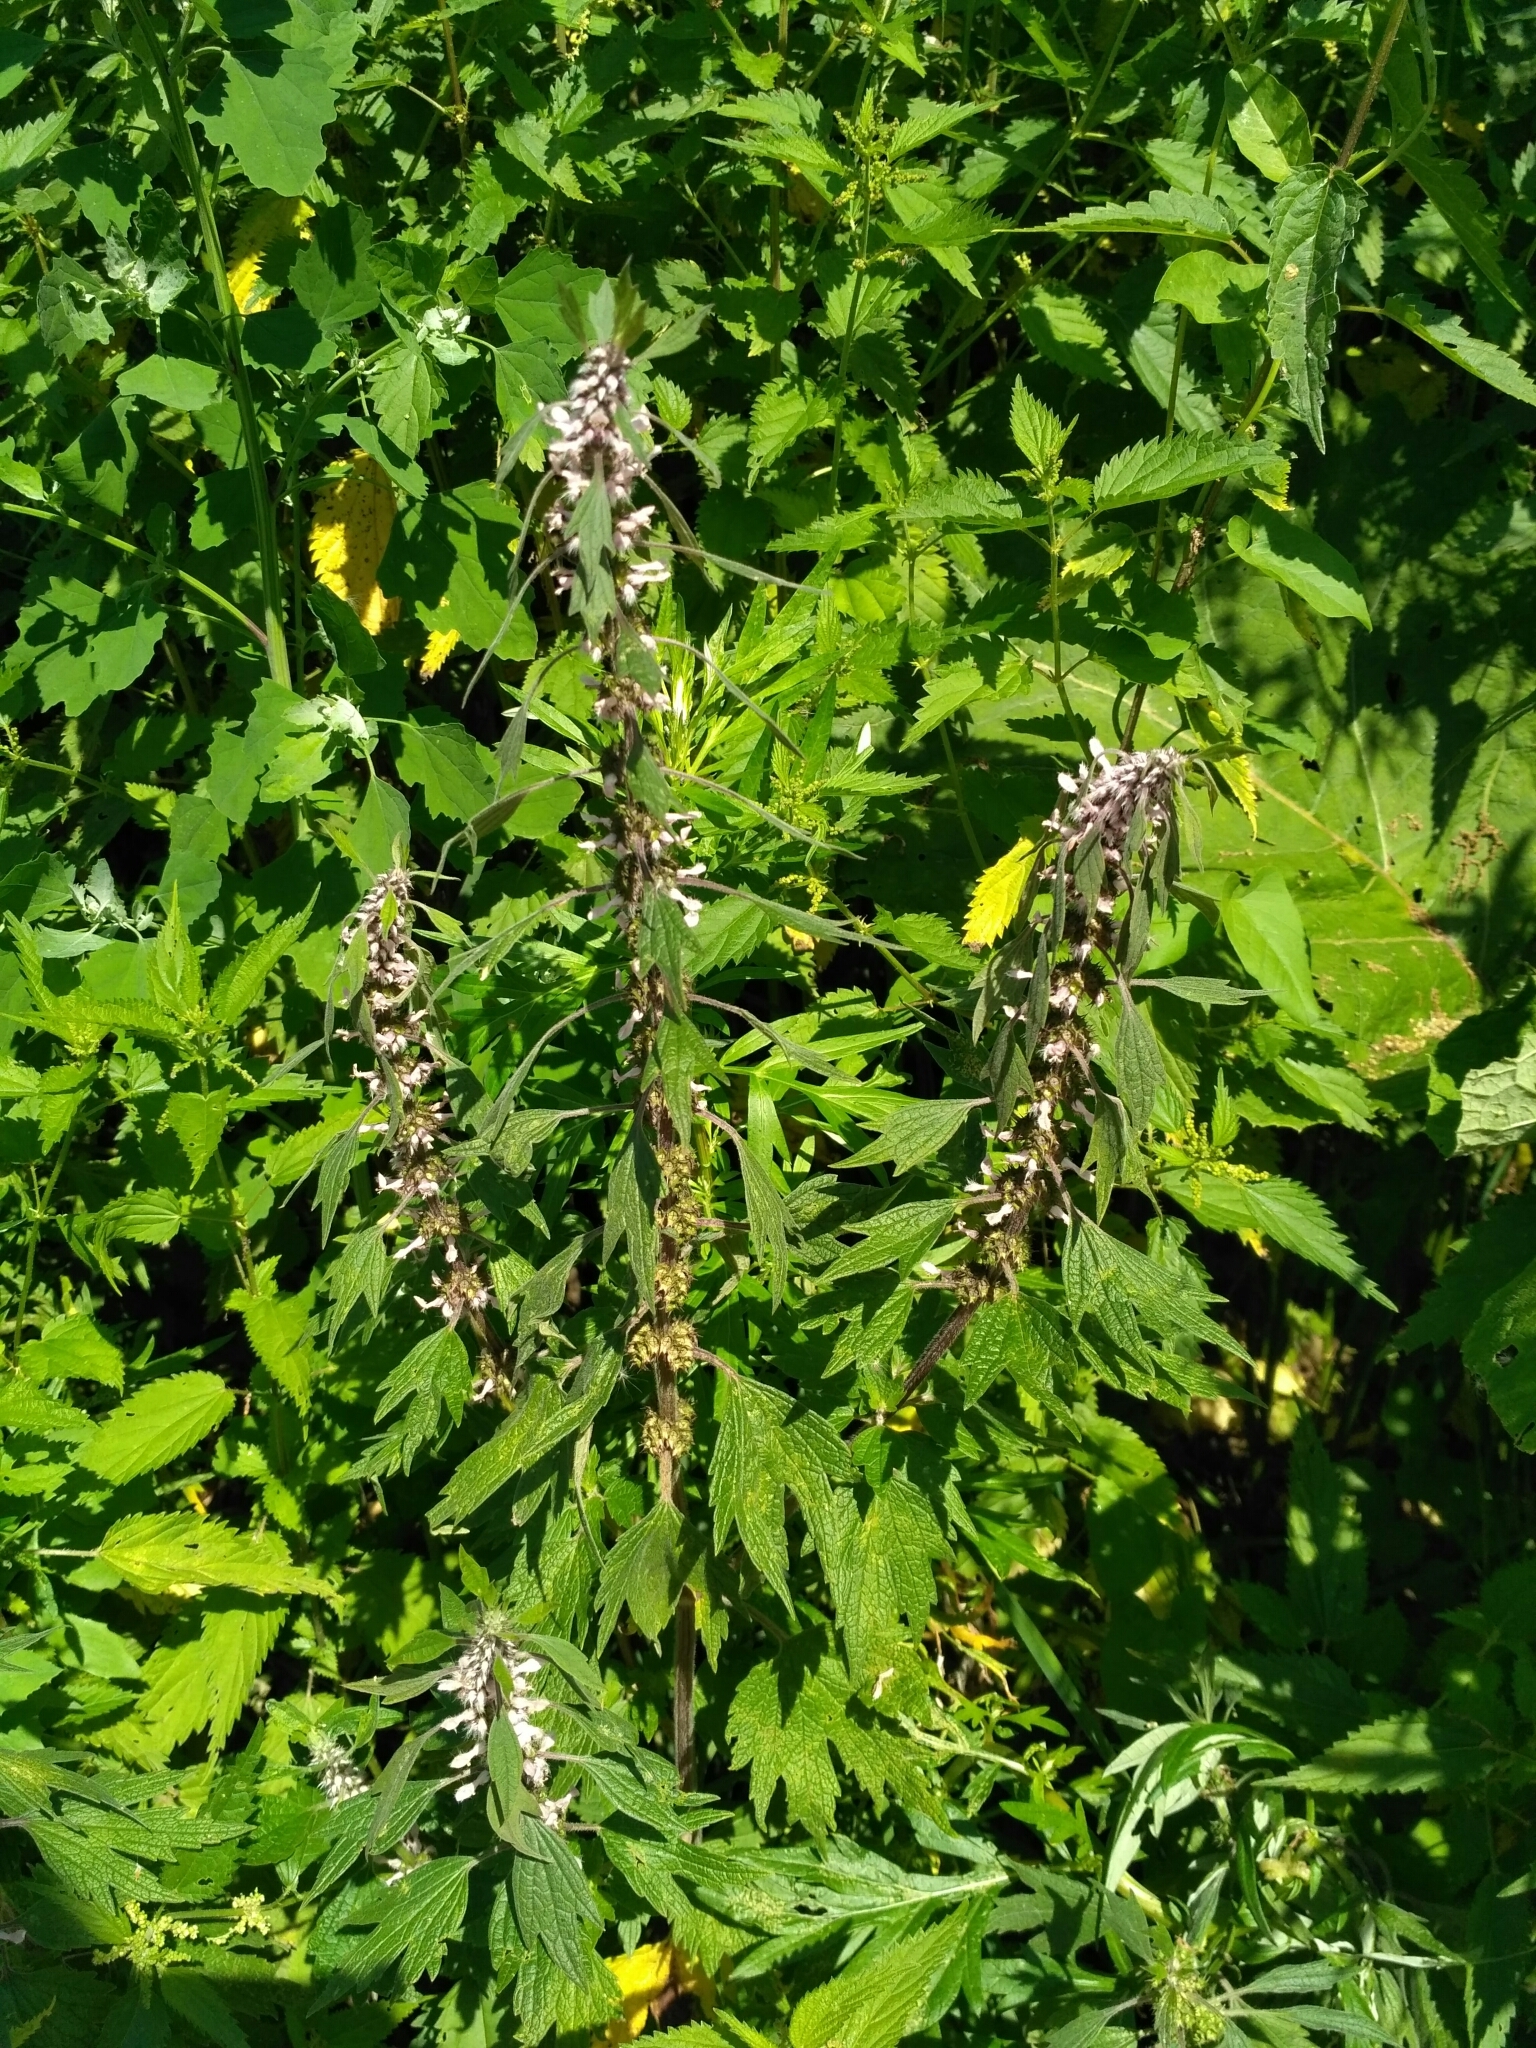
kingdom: Plantae
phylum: Tracheophyta
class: Magnoliopsida
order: Lamiales
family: Lamiaceae
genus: Leonurus
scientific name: Leonurus quinquelobatus
